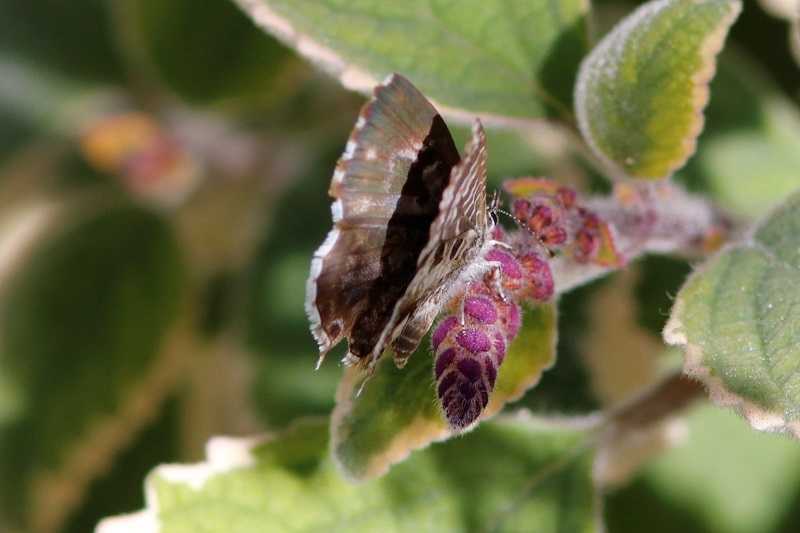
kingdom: Animalia
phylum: Arthropoda
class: Insecta
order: Lepidoptera
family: Lycaenidae
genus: Cacyreus
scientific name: Cacyreus lingeus
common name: Bush bronze
